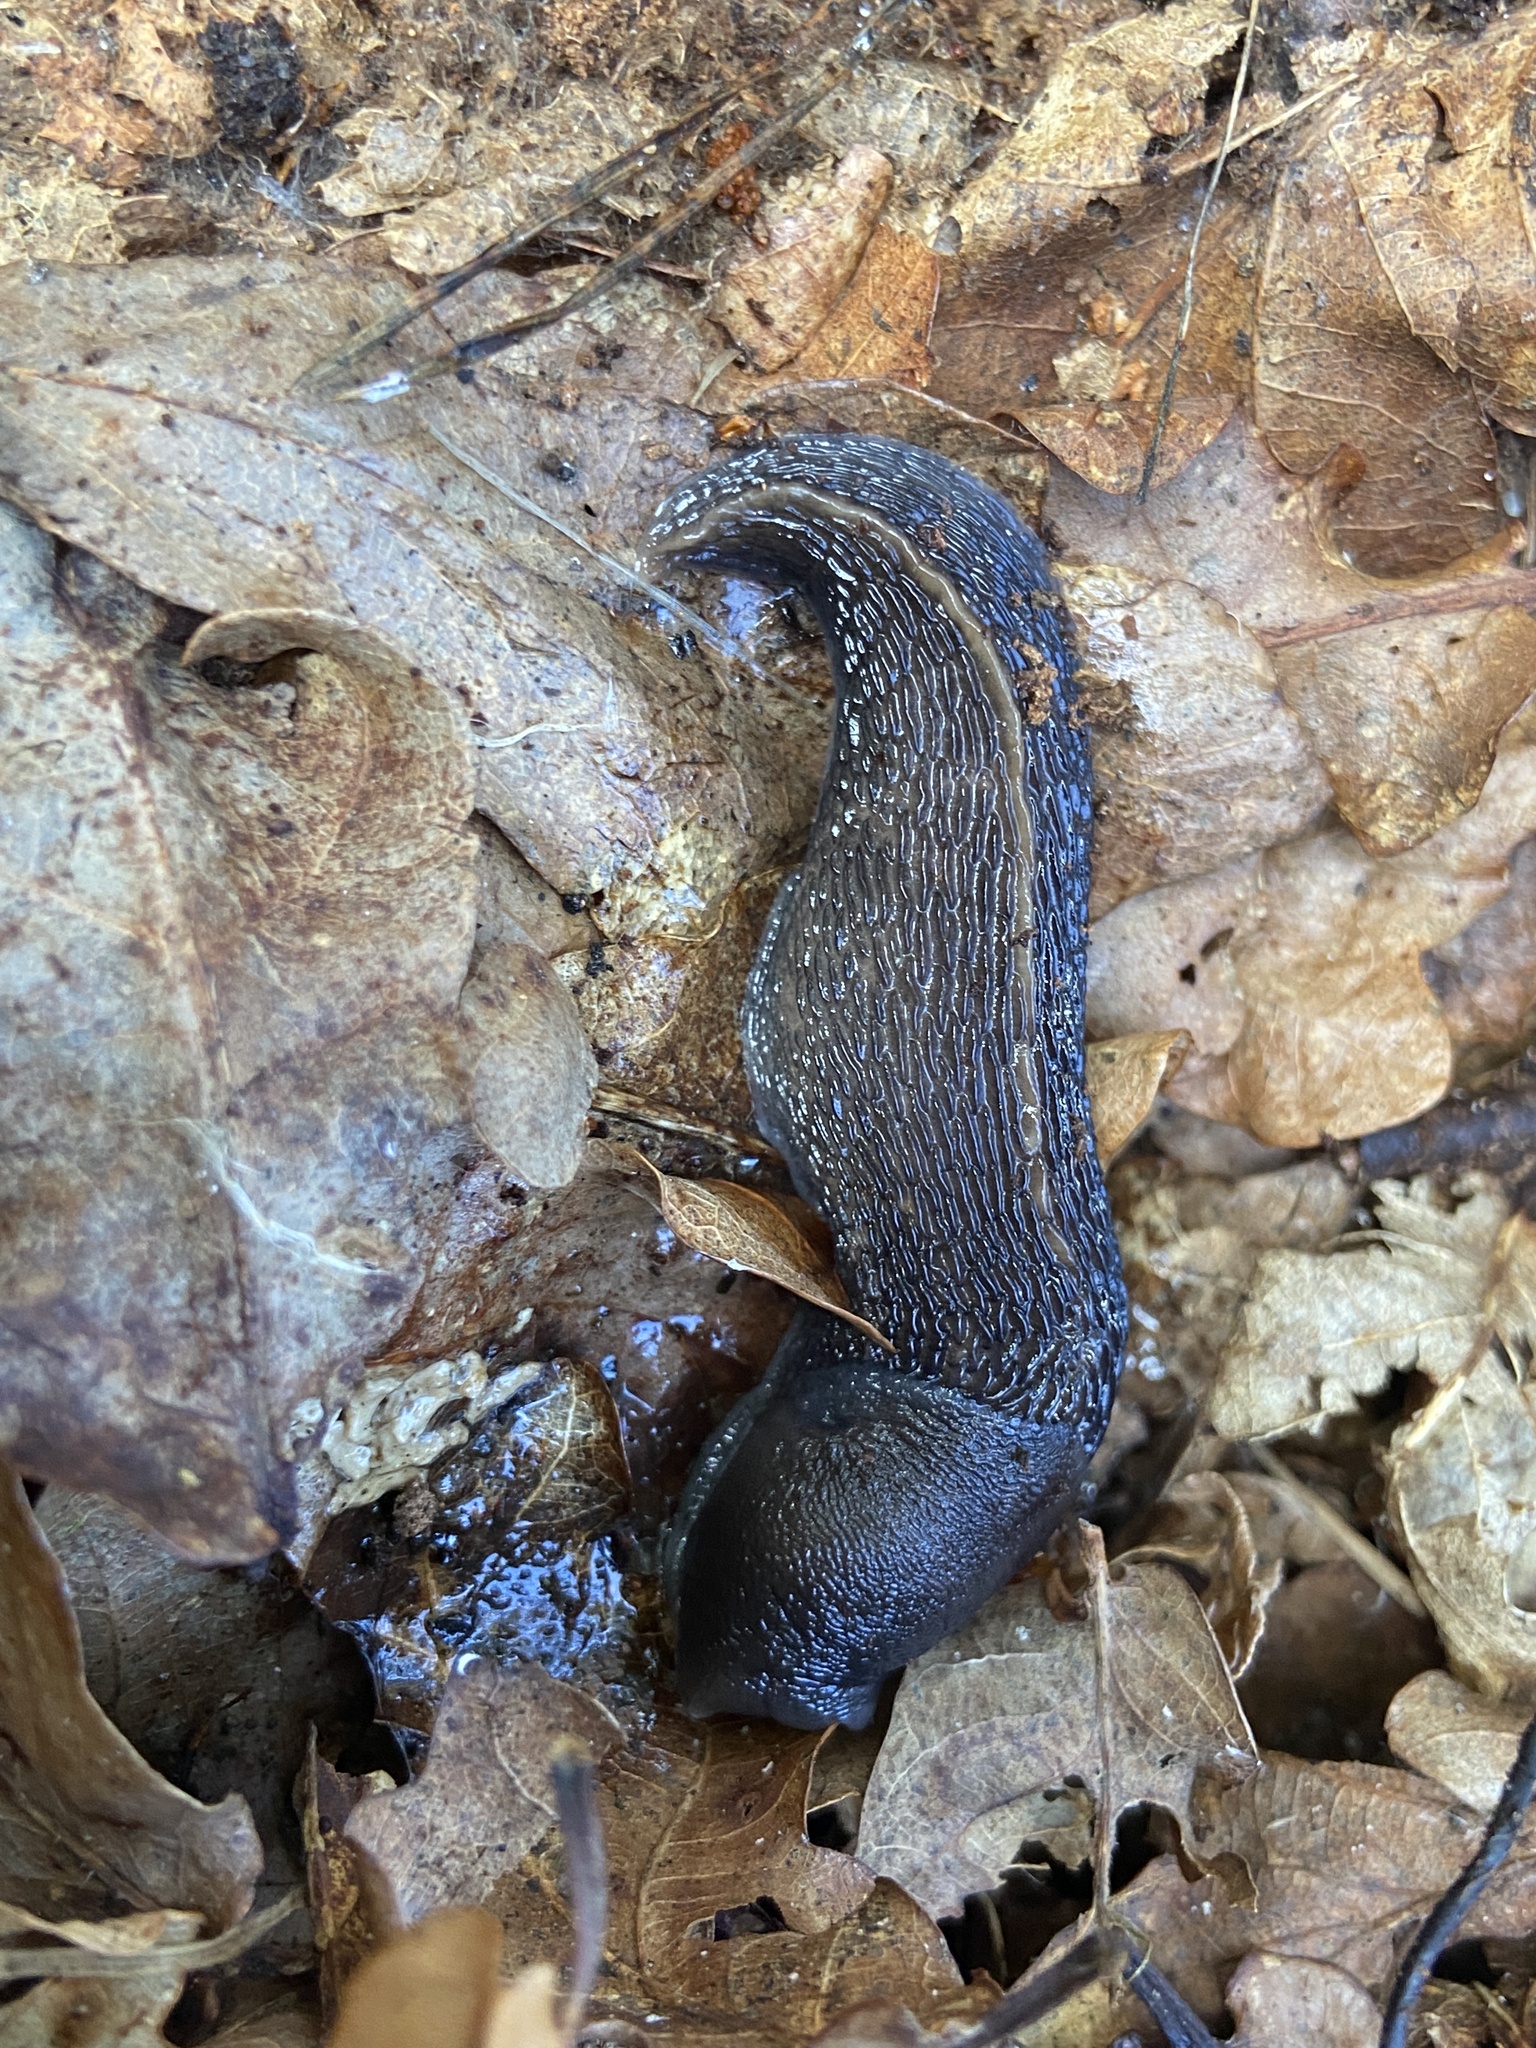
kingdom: Animalia
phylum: Mollusca
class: Gastropoda
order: Stylommatophora
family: Limacidae
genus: Limax
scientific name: Limax cinereoniger
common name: Ash-black slug
